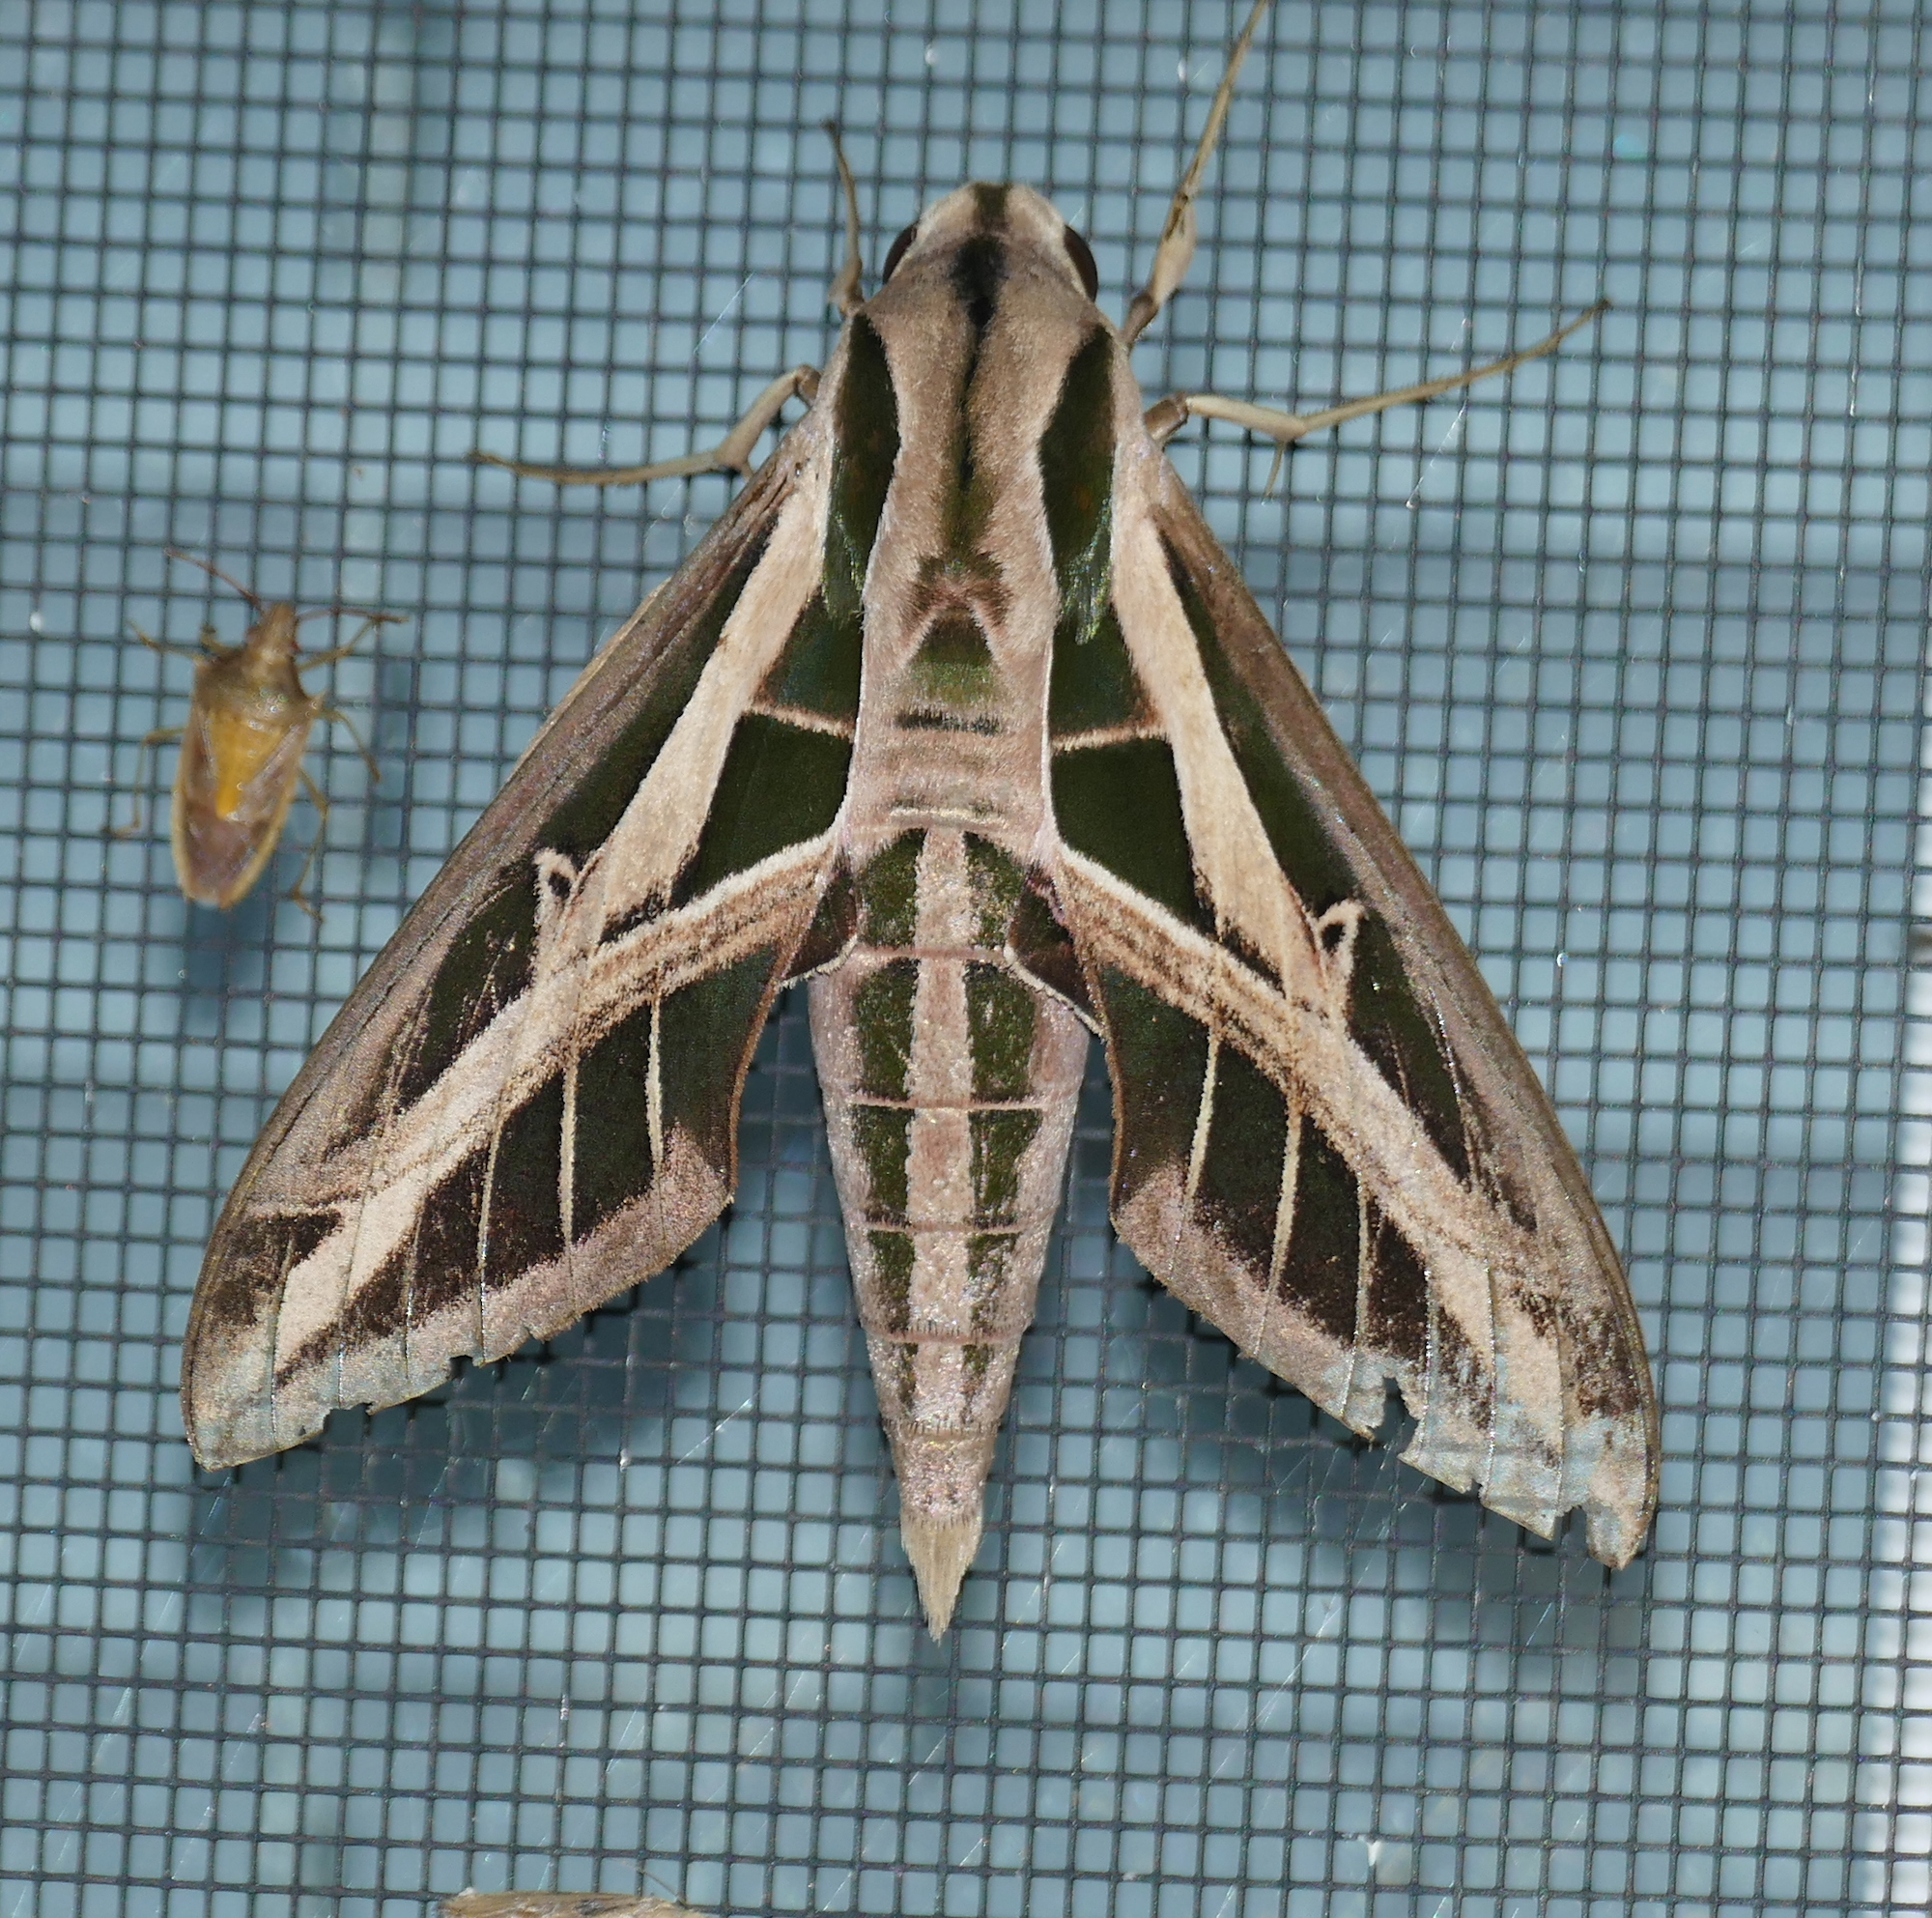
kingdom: Animalia
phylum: Arthropoda
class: Insecta
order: Lepidoptera
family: Sphingidae
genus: Eumorpha
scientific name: Eumorpha fasciatus
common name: Banded sphinx
